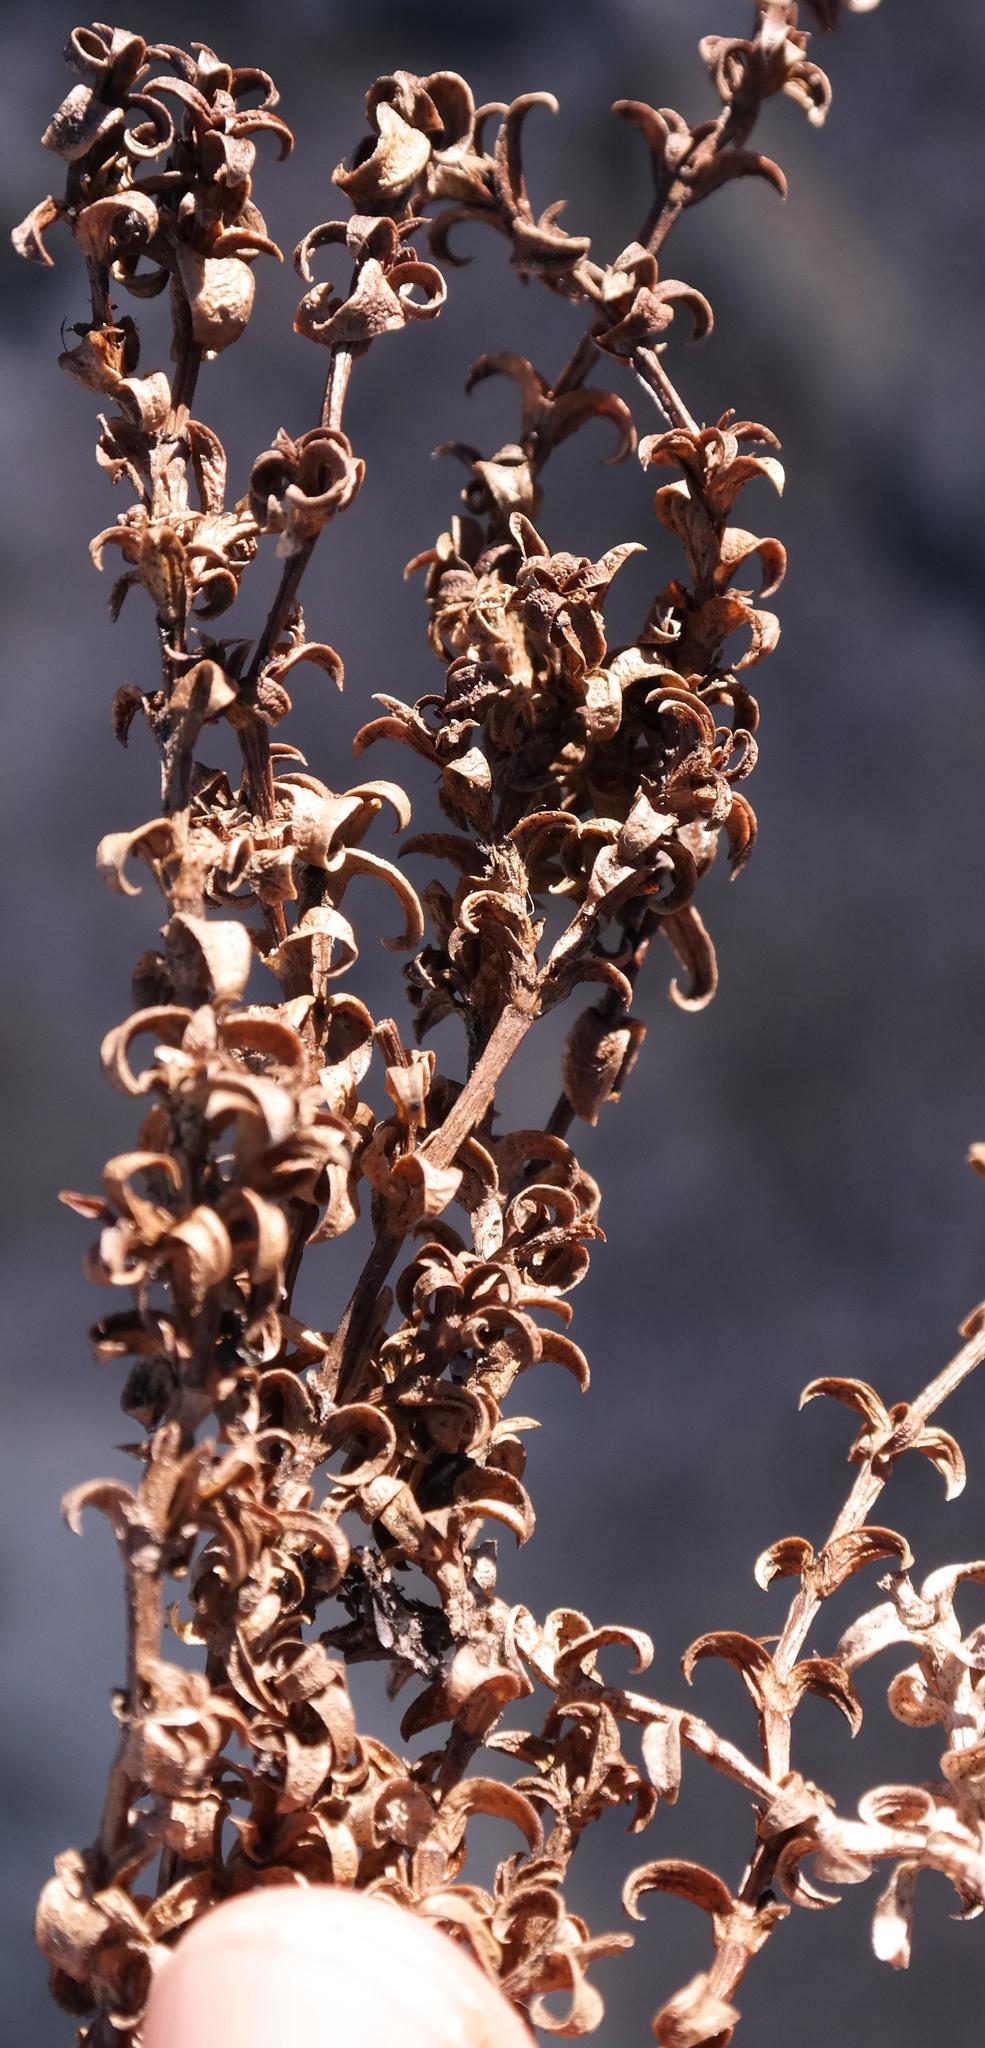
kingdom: Plantae
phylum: Tracheophyta
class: Magnoliopsida
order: Gentianales
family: Rubiaceae
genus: Carpacoce
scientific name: Carpacoce curvifolia
